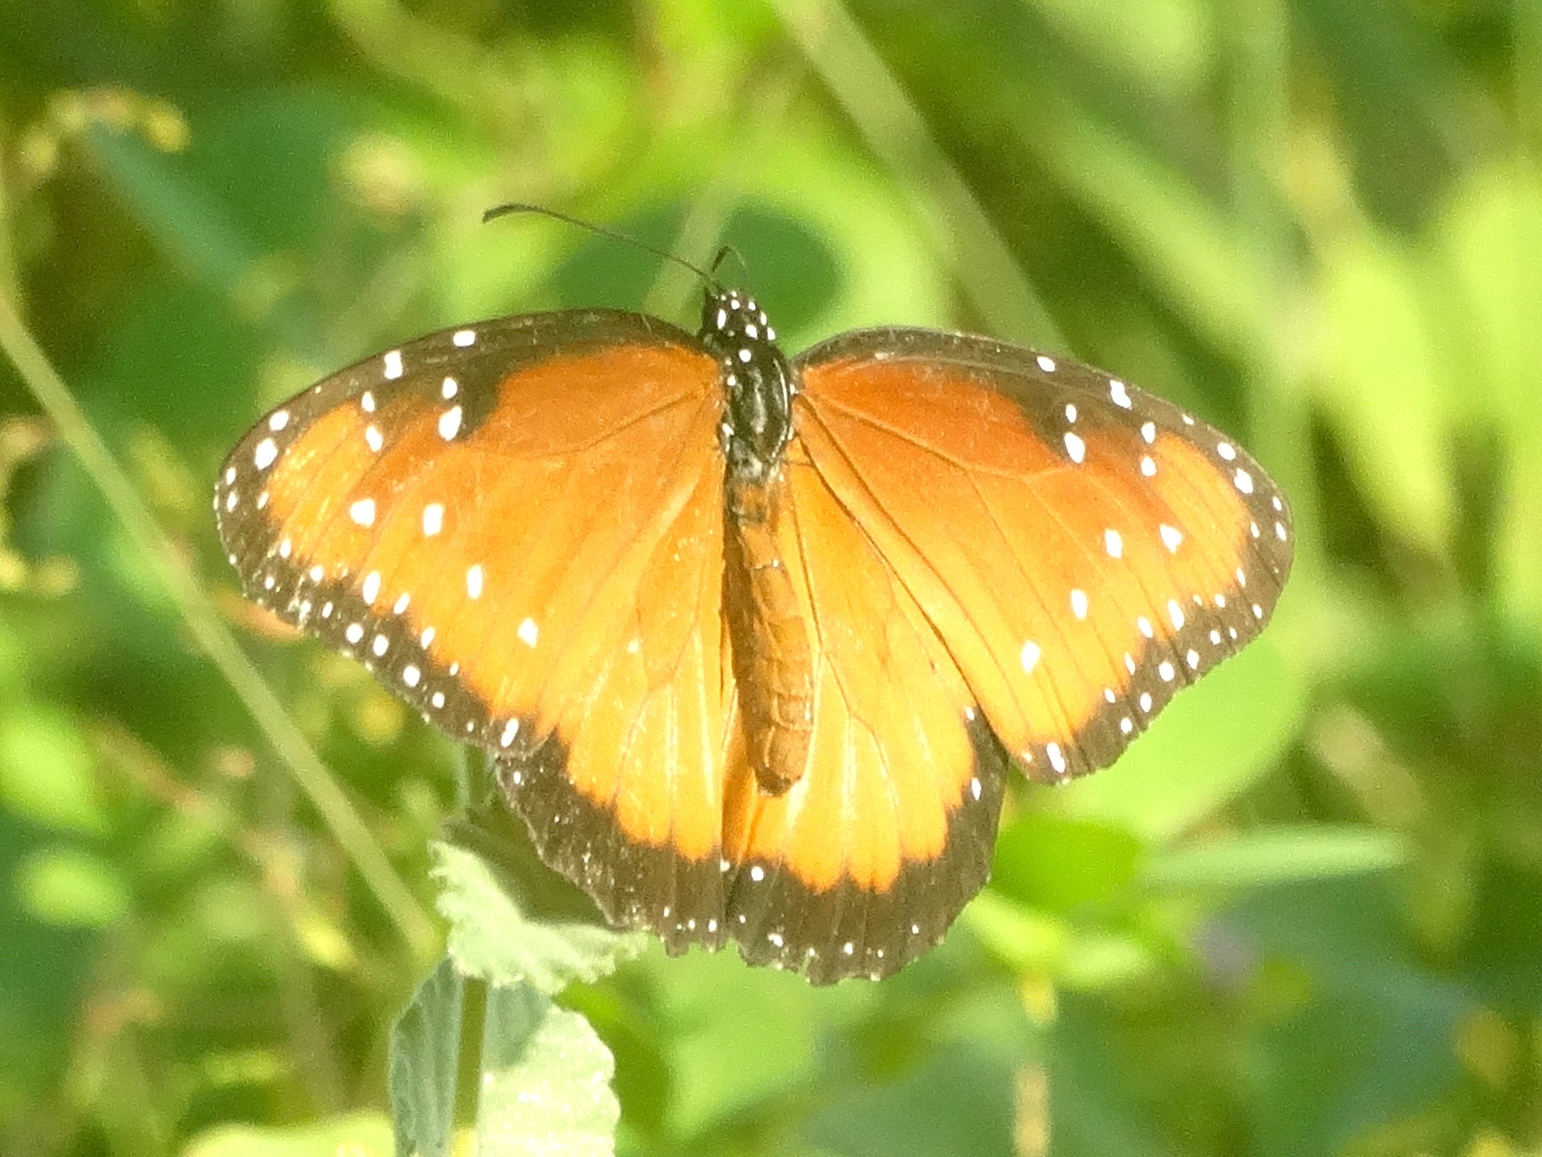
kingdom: Animalia
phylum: Arthropoda
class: Insecta
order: Lepidoptera
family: Nymphalidae
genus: Danaus
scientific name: Danaus gilippus
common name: Queen
